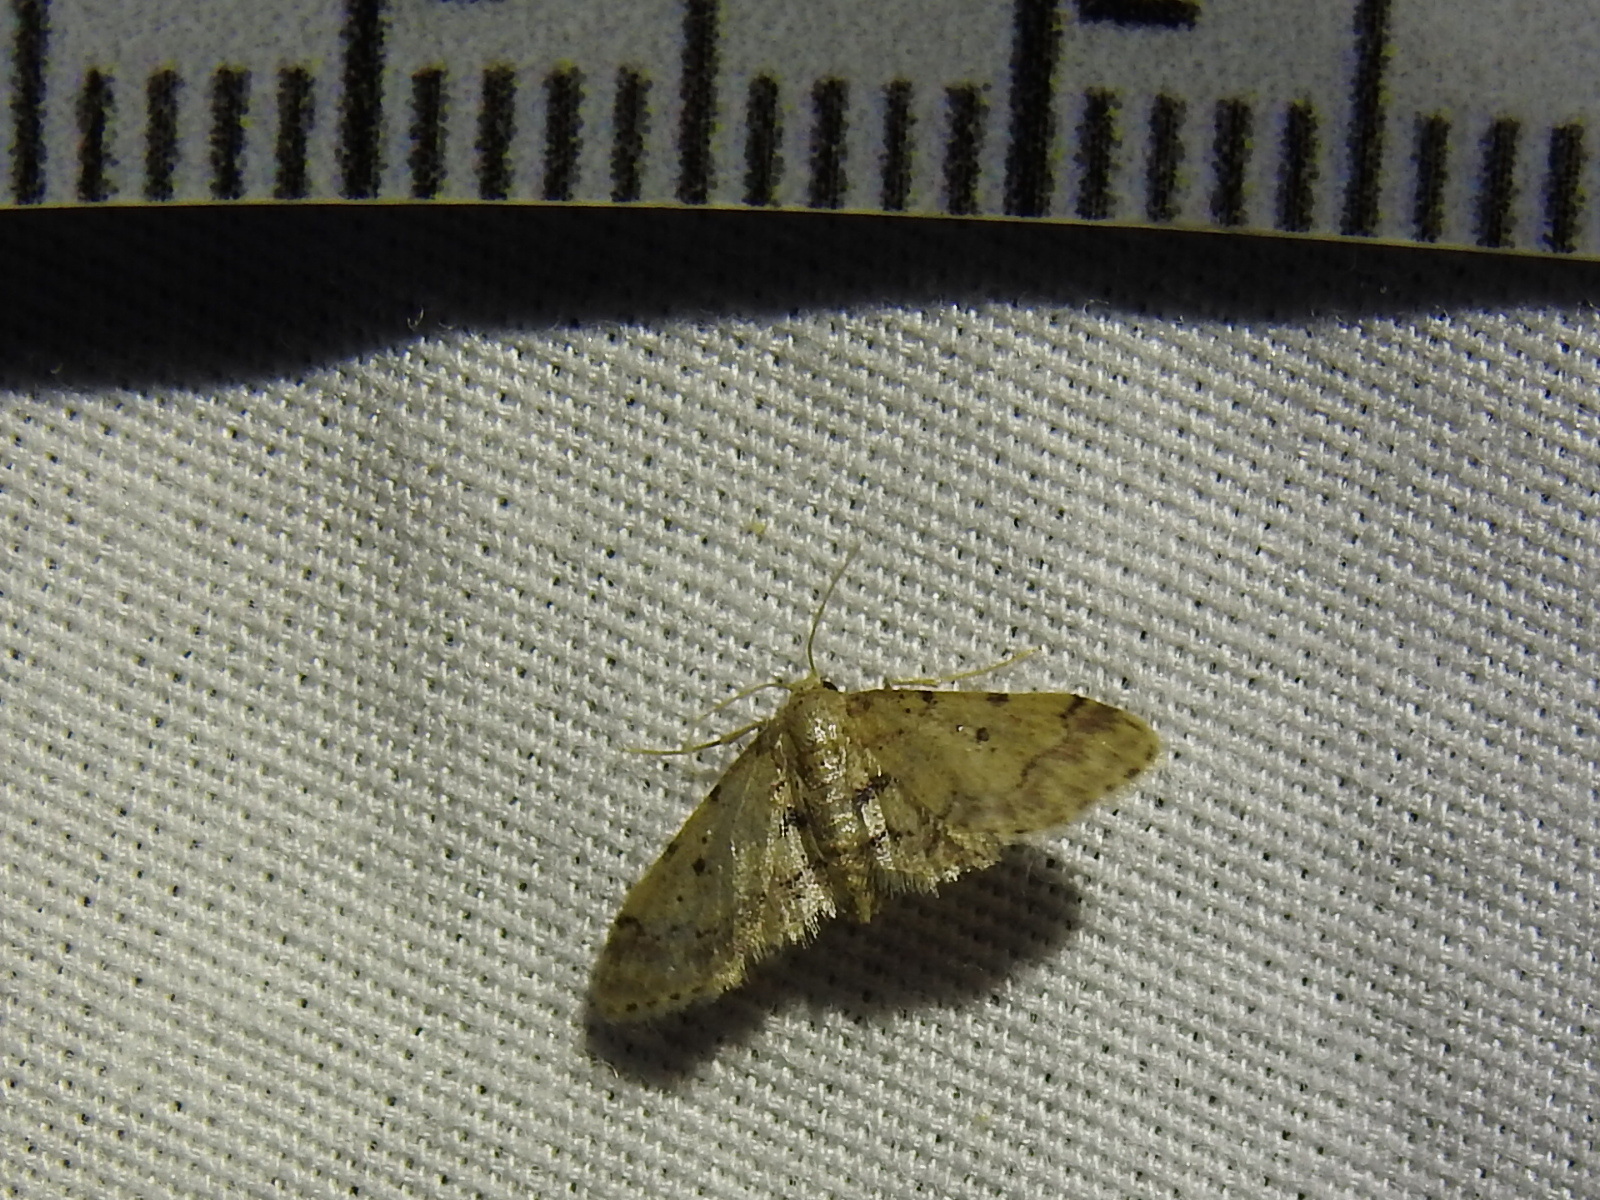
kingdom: Animalia
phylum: Arthropoda
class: Insecta
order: Lepidoptera
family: Geometridae
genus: Idaea
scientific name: Idaea pervertipennis
